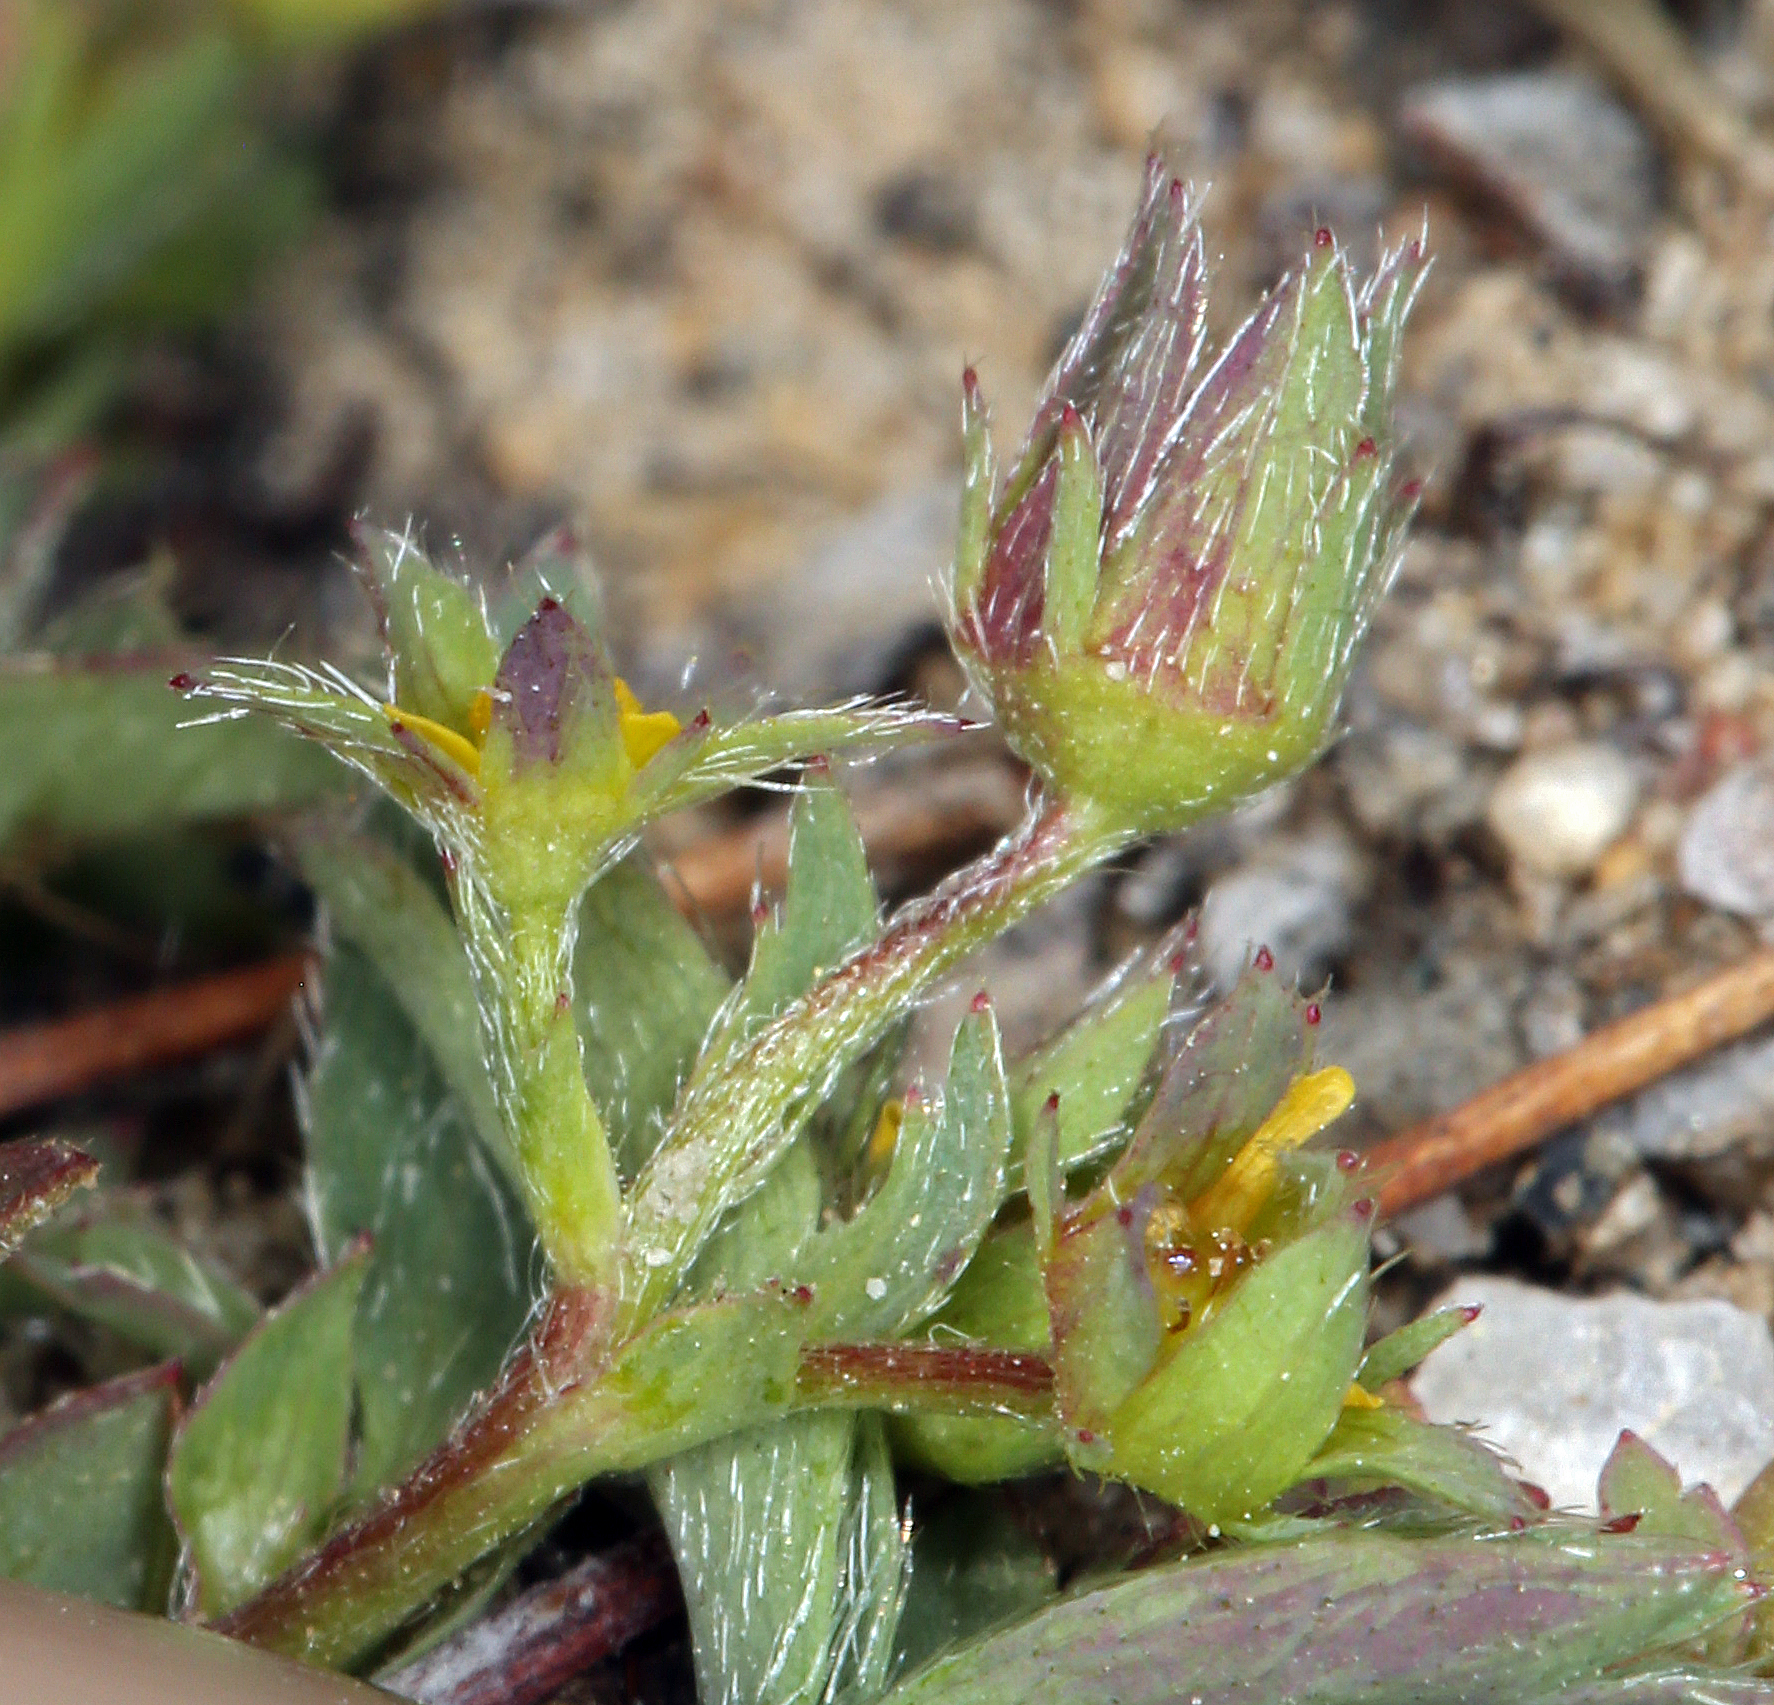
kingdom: Plantae
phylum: Tracheophyta
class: Magnoliopsida
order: Rosales
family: Rosaceae
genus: Sibbaldia
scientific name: Sibbaldia procumbens
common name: Creeping sibbaldia
